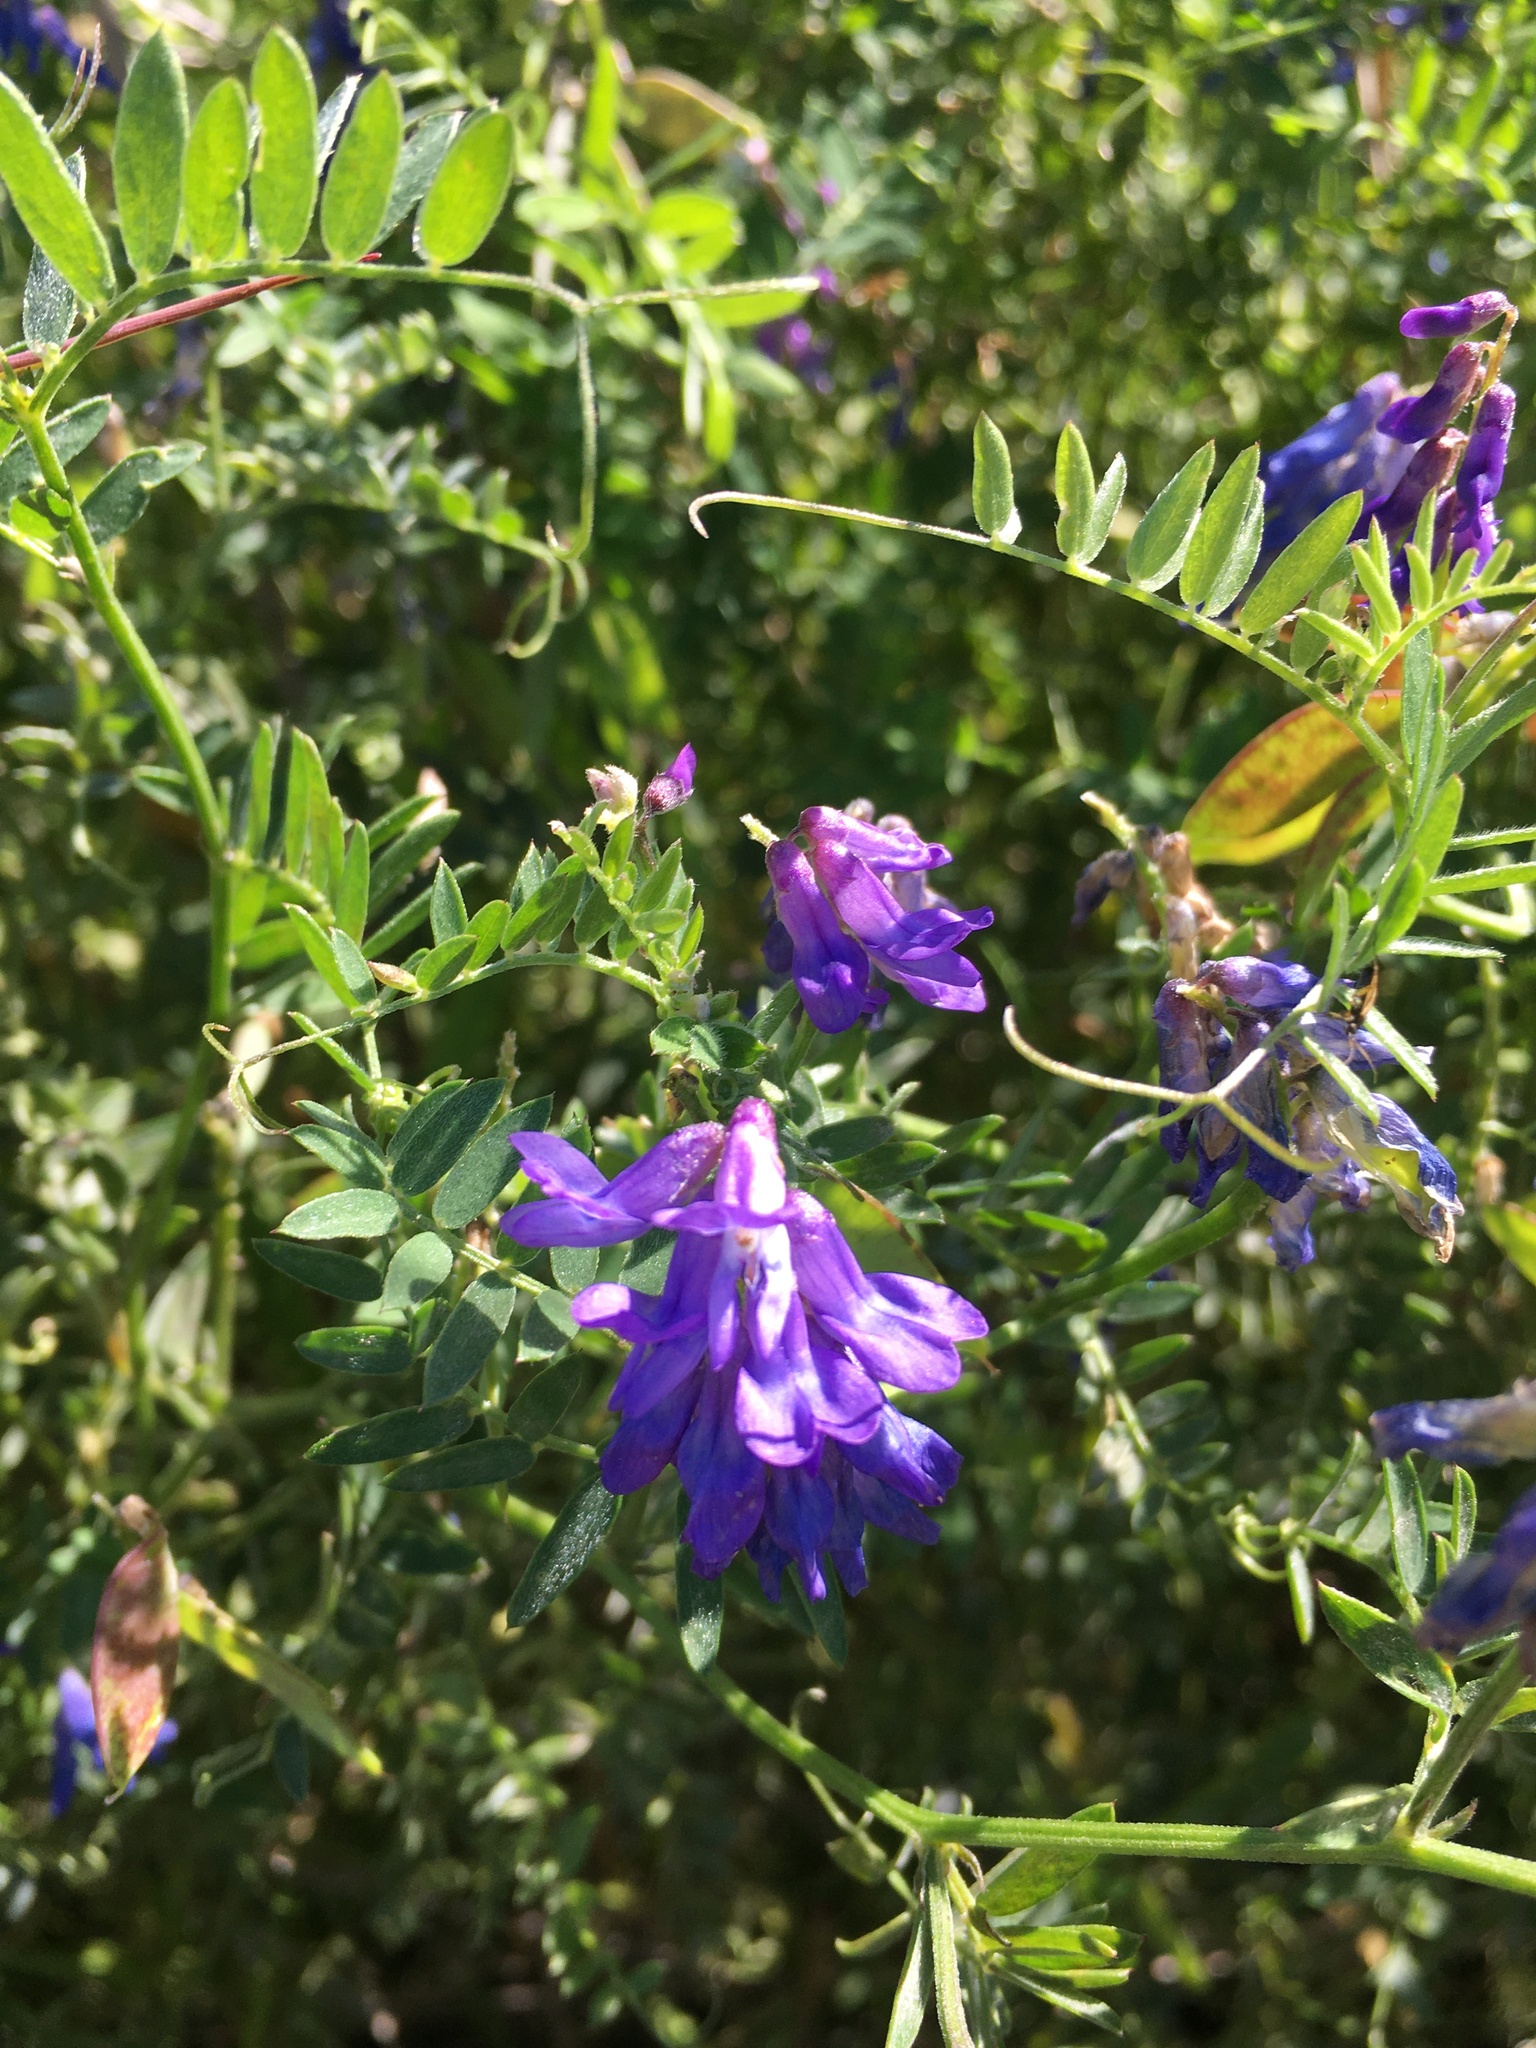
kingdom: Plantae
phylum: Tracheophyta
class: Magnoliopsida
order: Fabales
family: Fabaceae
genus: Vicia
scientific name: Vicia cracca
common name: Bird vetch
